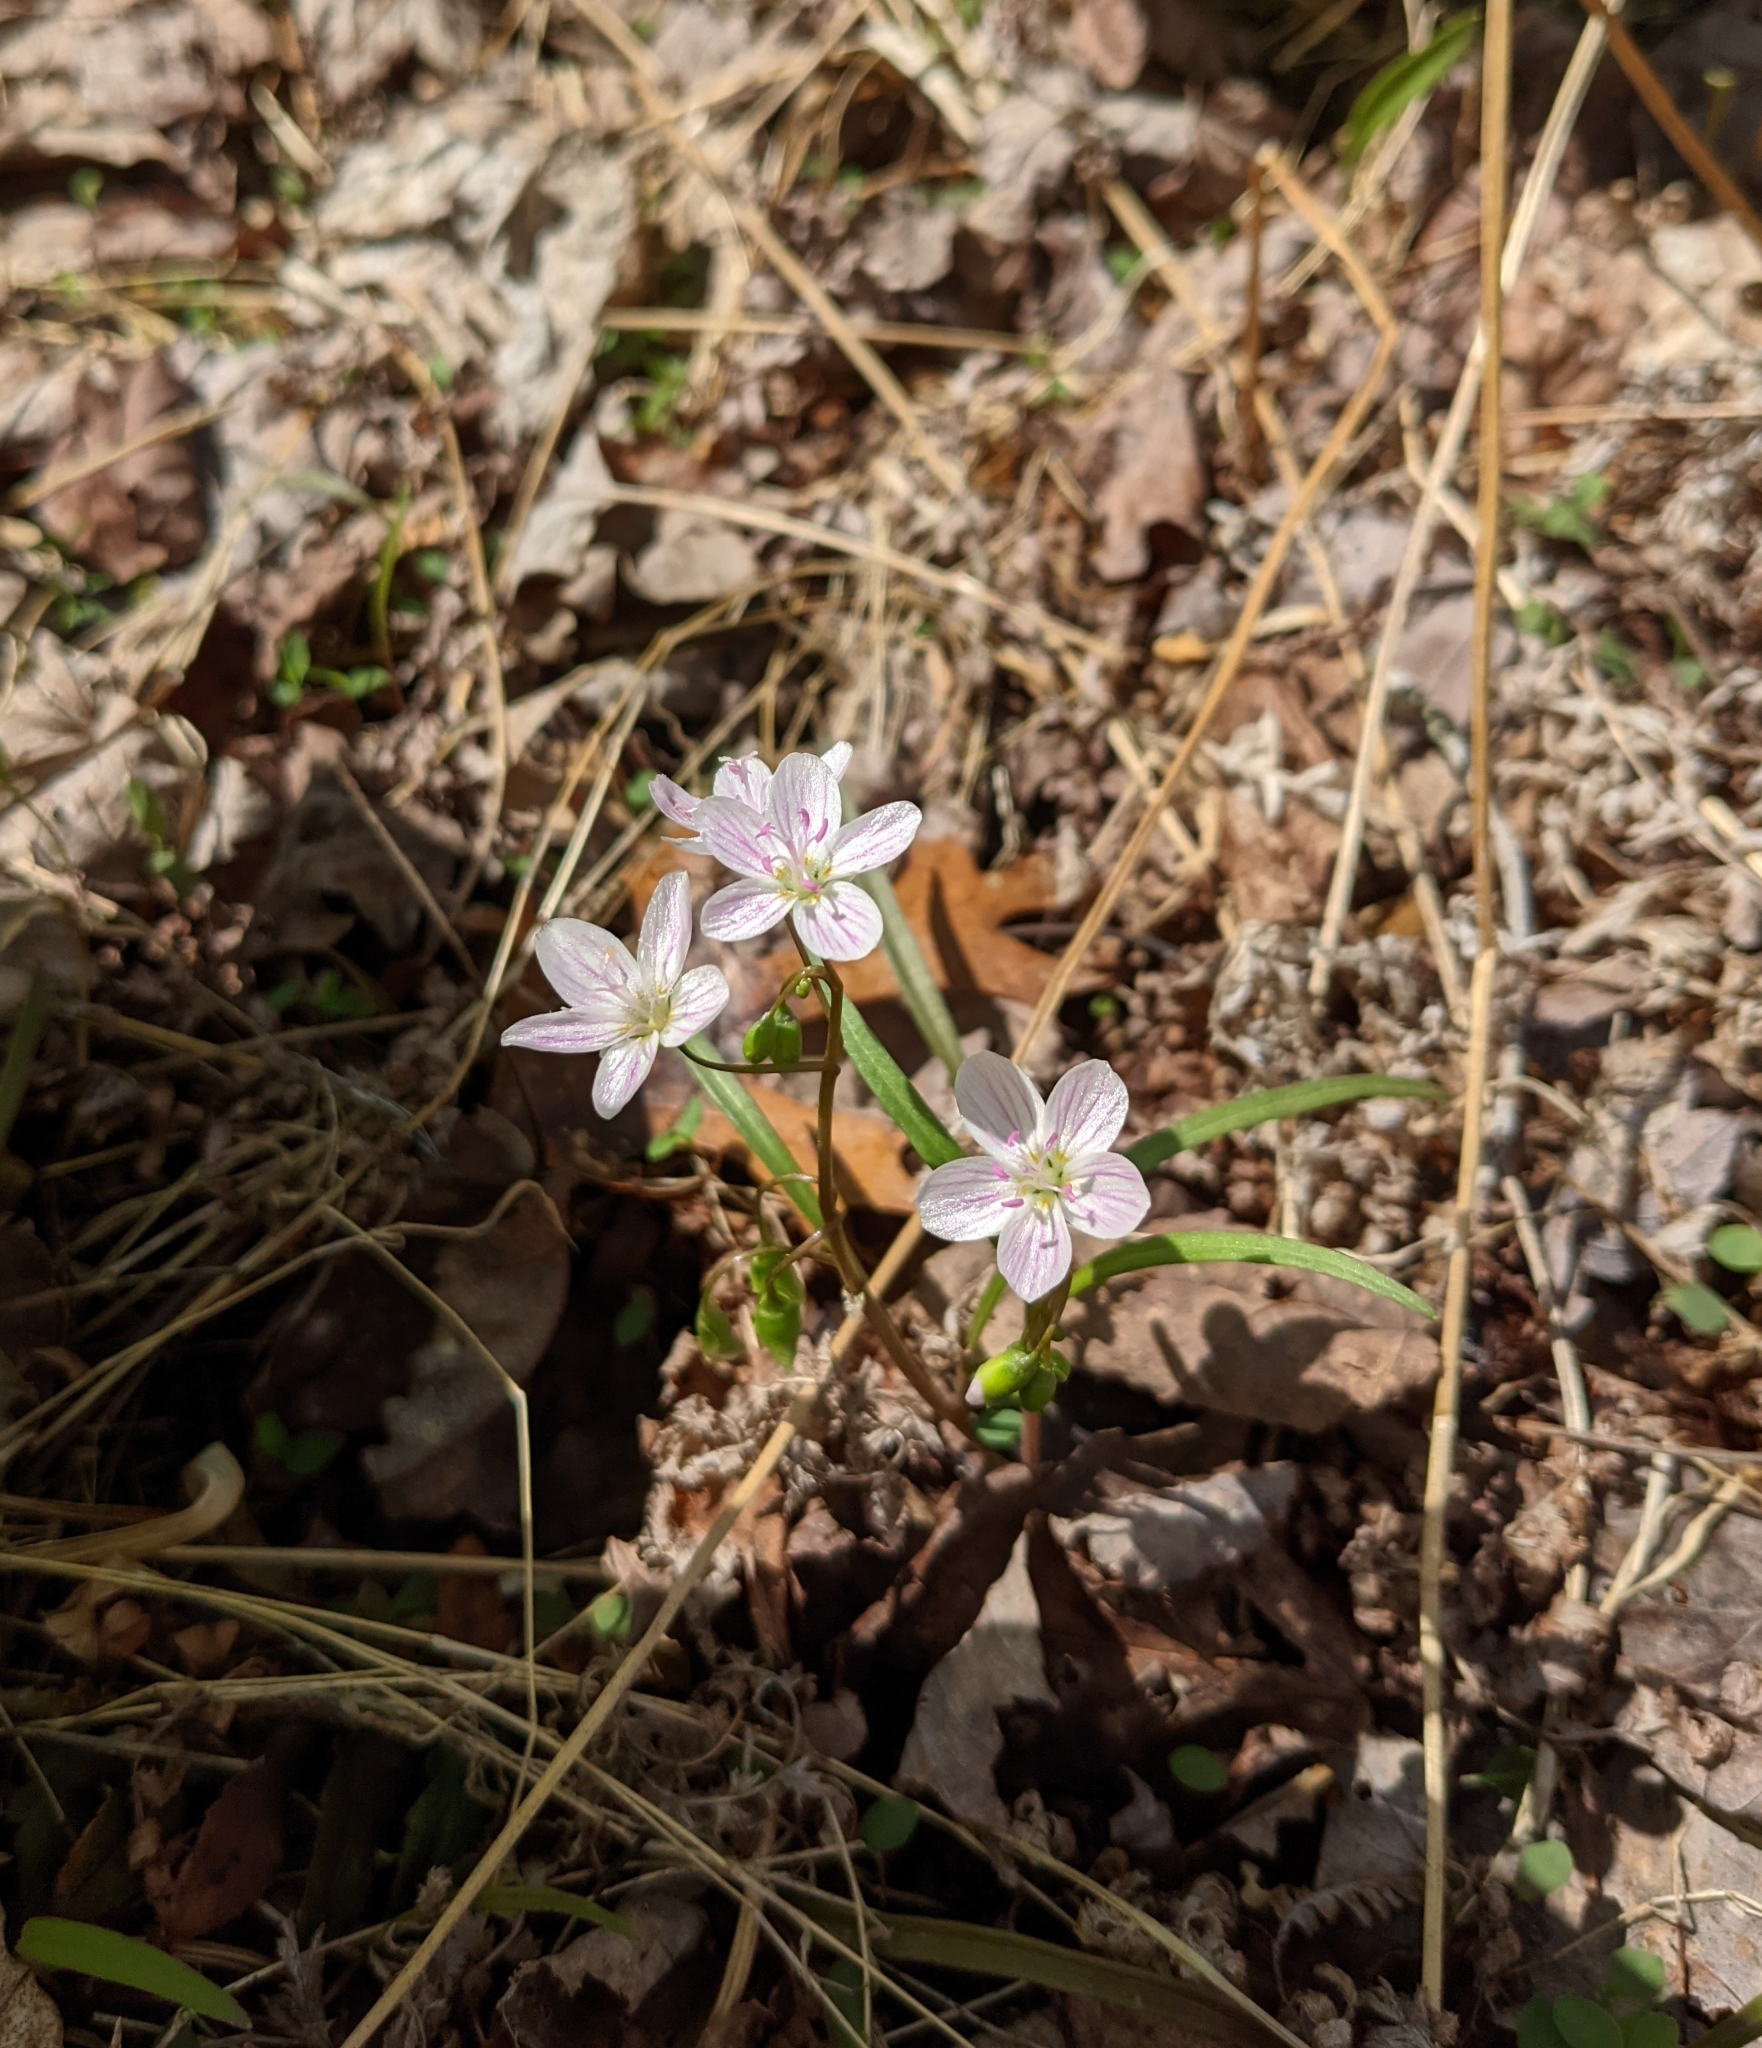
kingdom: Plantae
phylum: Tracheophyta
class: Magnoliopsida
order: Caryophyllales
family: Montiaceae
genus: Claytonia
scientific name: Claytonia virginica
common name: Virginia springbeauty
